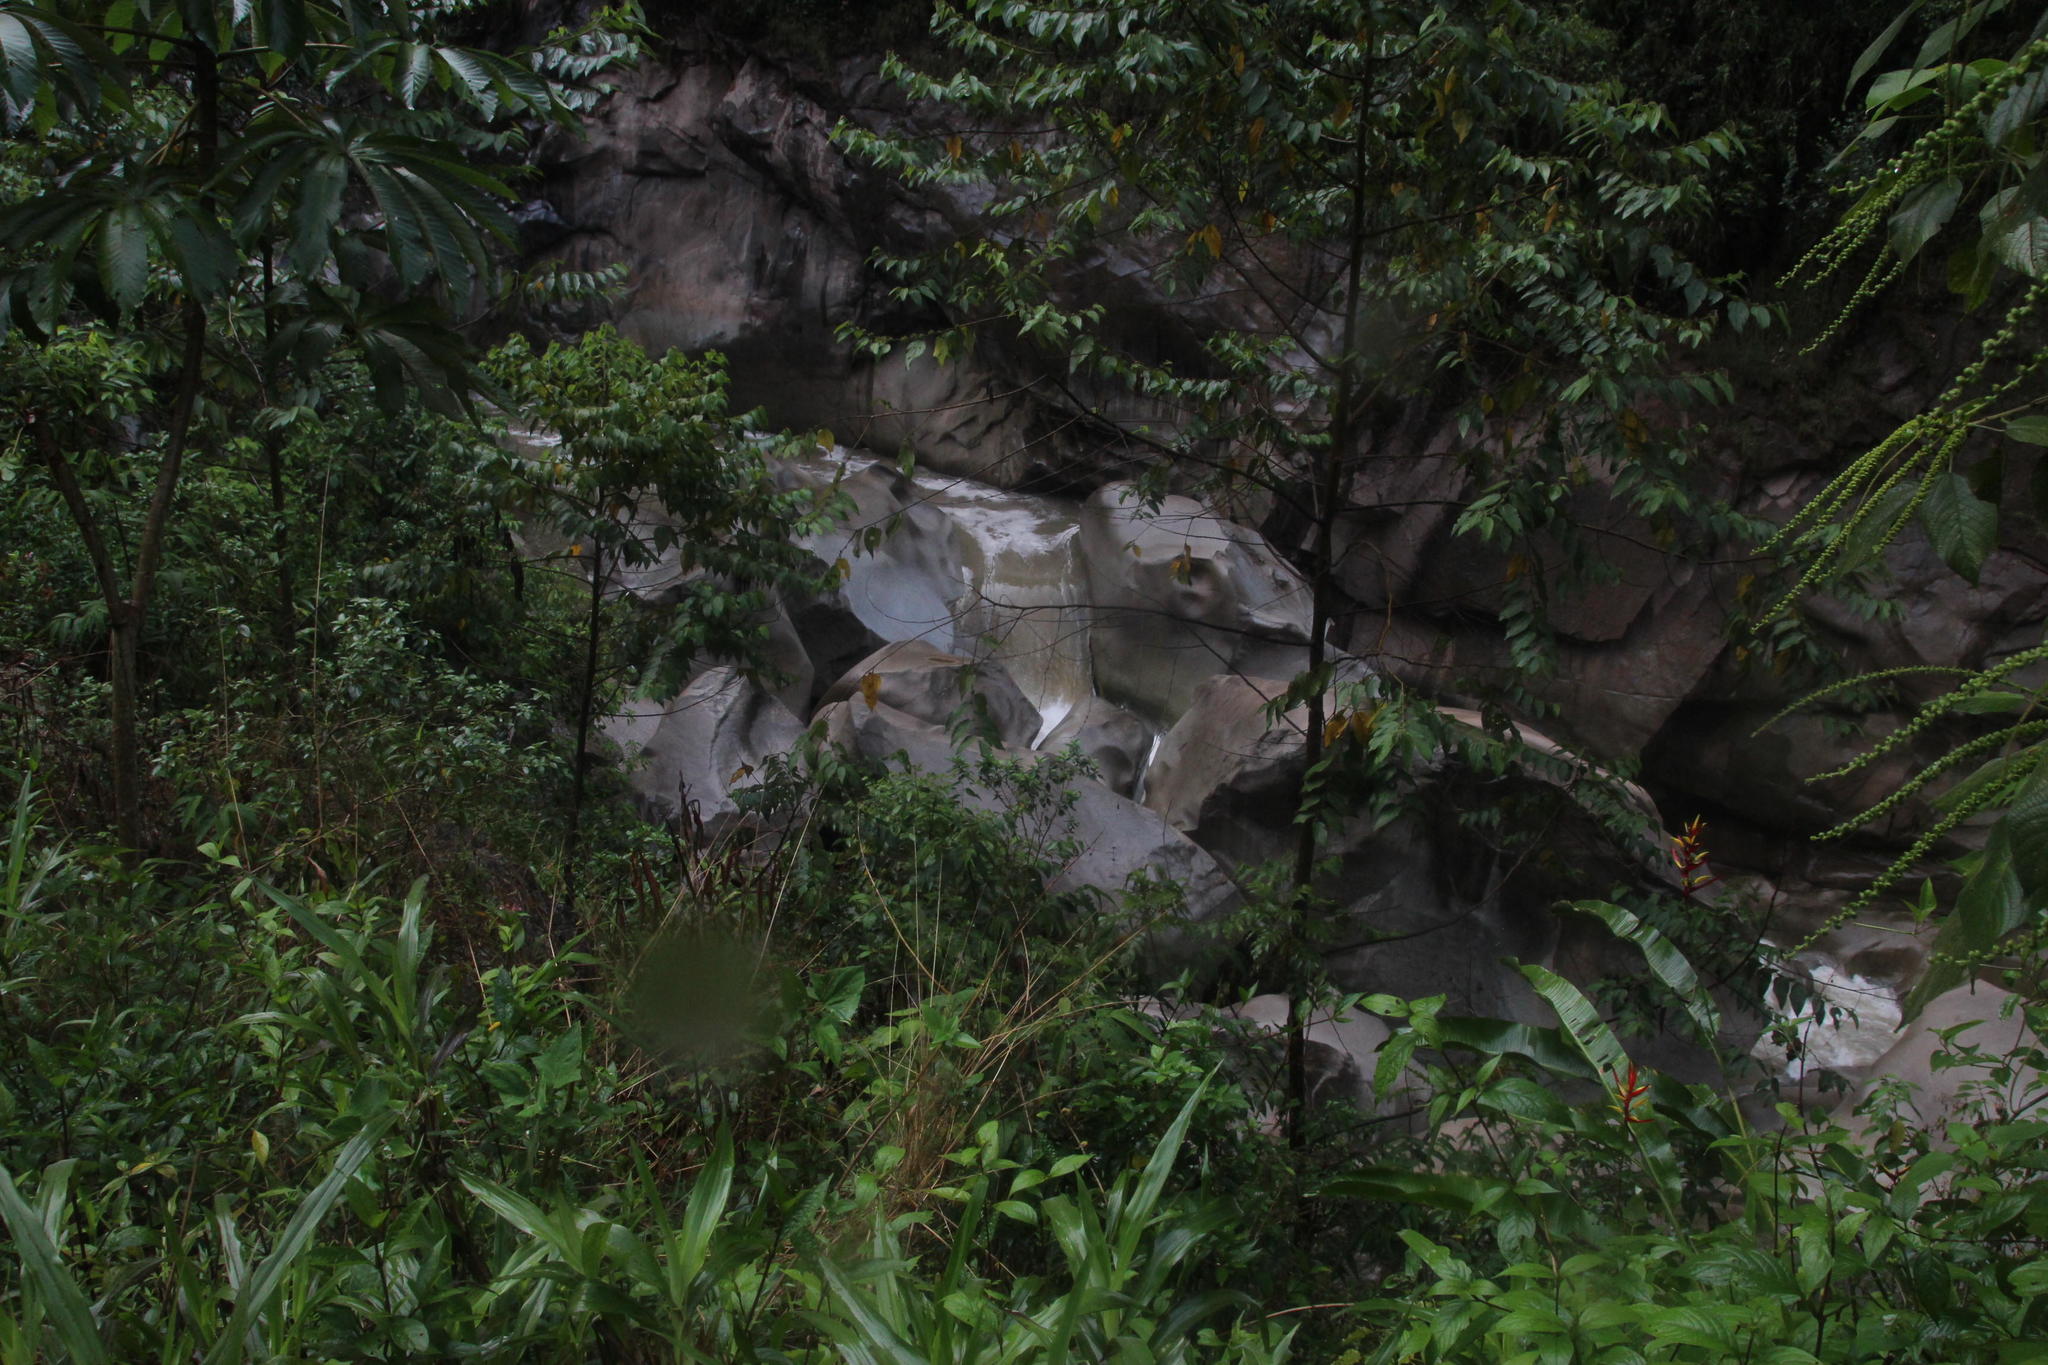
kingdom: Plantae
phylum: Tracheophyta
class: Liliopsida
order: Zingiberales
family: Heliconiaceae
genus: Heliconia
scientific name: Heliconia subulata
